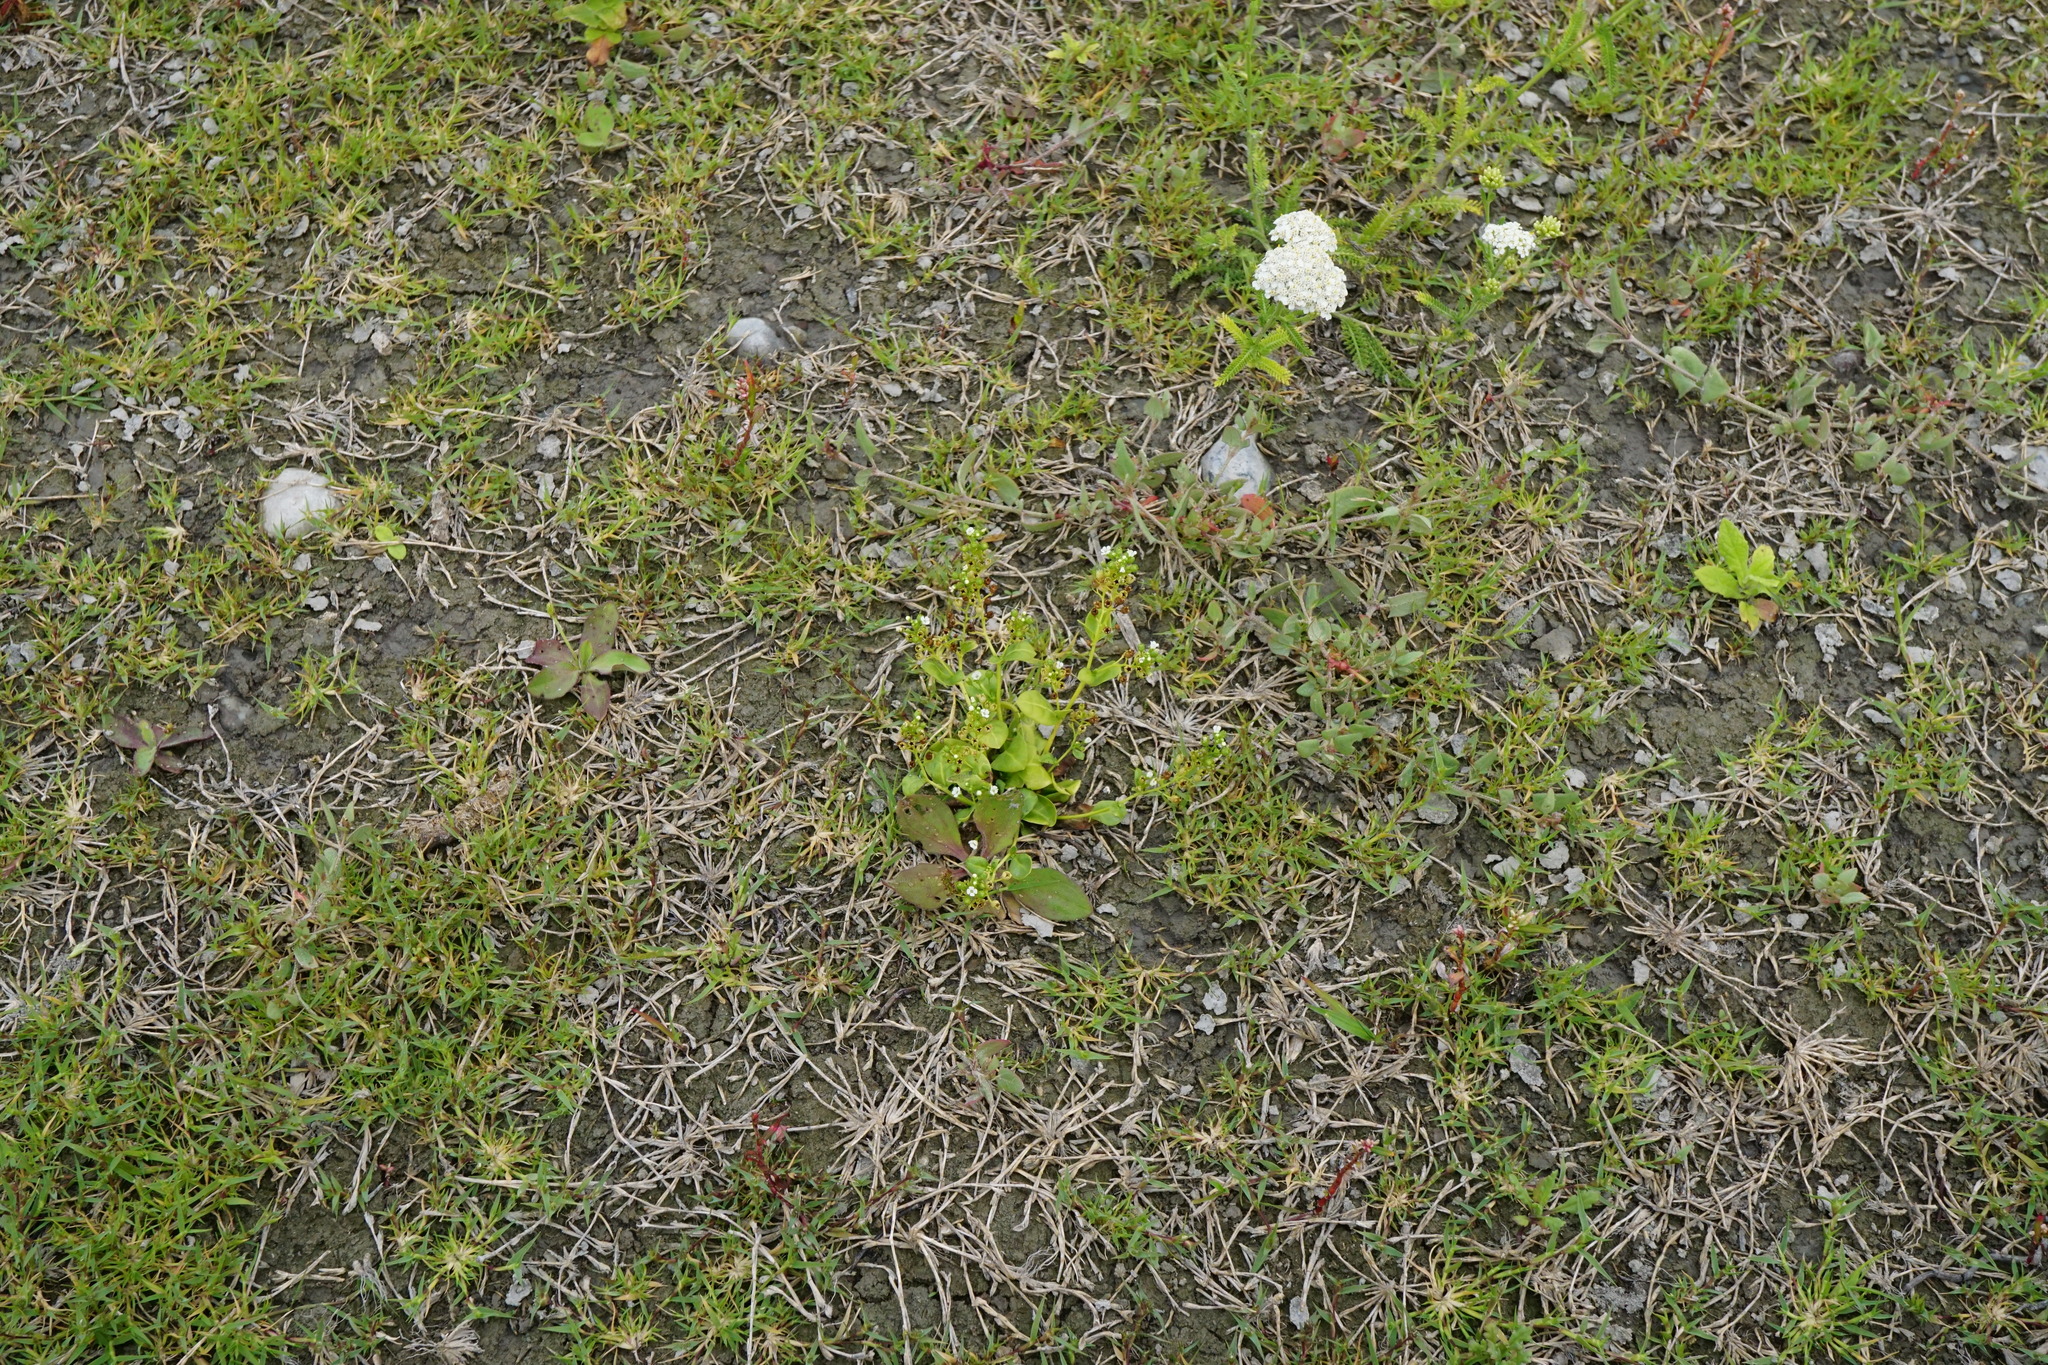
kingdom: Plantae
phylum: Tracheophyta
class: Magnoliopsida
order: Ericales
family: Primulaceae
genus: Samolus
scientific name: Samolus valerandi
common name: Brookweed
